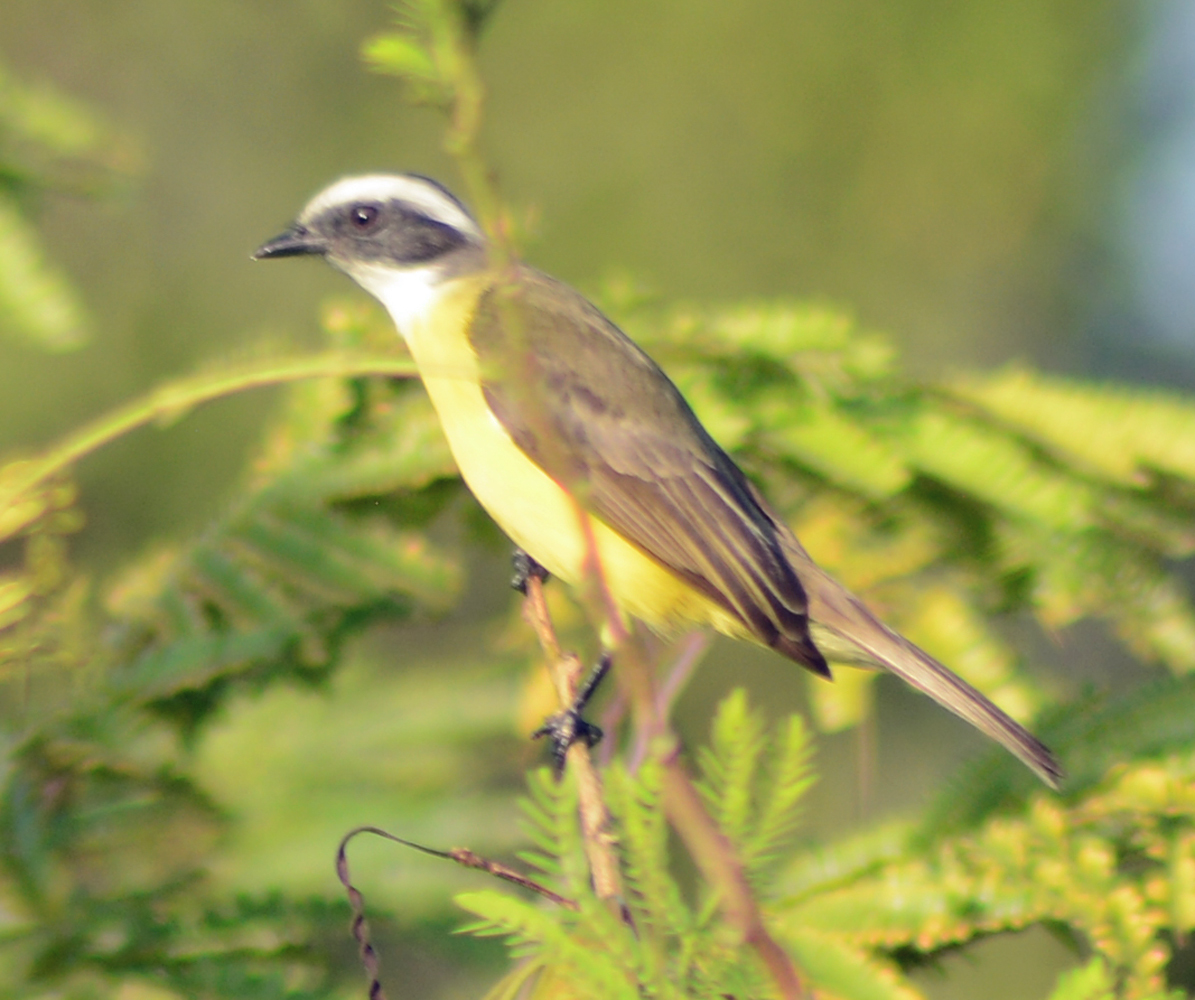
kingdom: Animalia
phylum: Chordata
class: Aves
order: Passeriformes
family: Tyrannidae
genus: Myiozetetes
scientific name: Myiozetetes similis
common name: Social flycatcher
